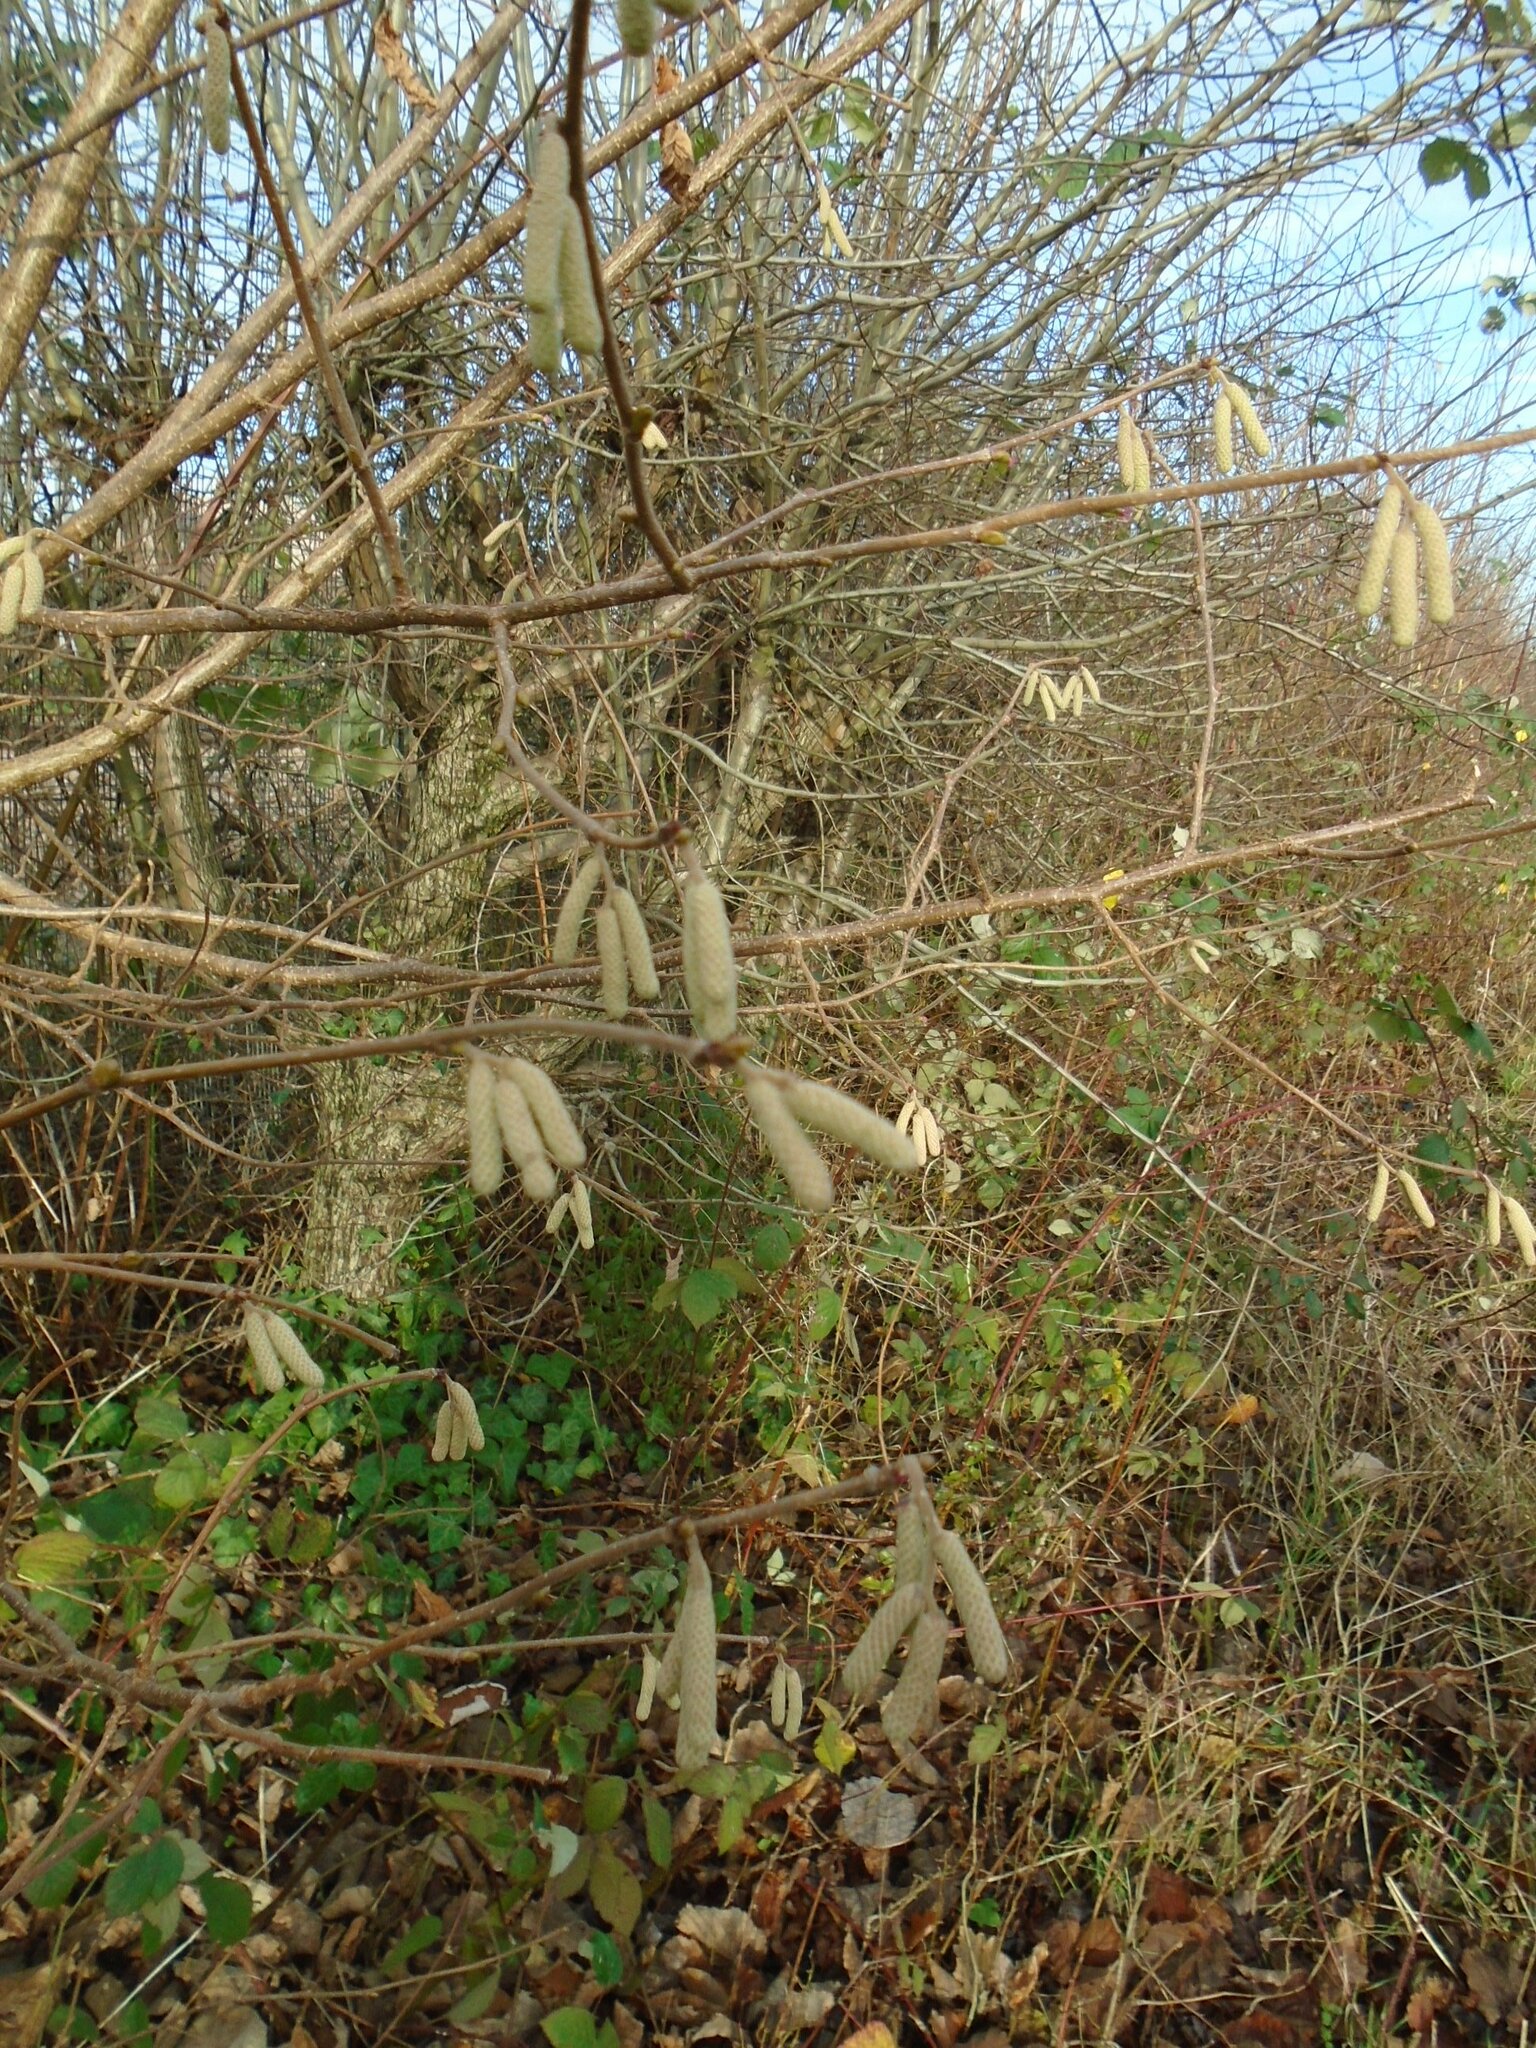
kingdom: Plantae
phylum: Tracheophyta
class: Magnoliopsida
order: Fagales
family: Betulaceae
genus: Corylus
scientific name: Corylus avellana
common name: European hazel
